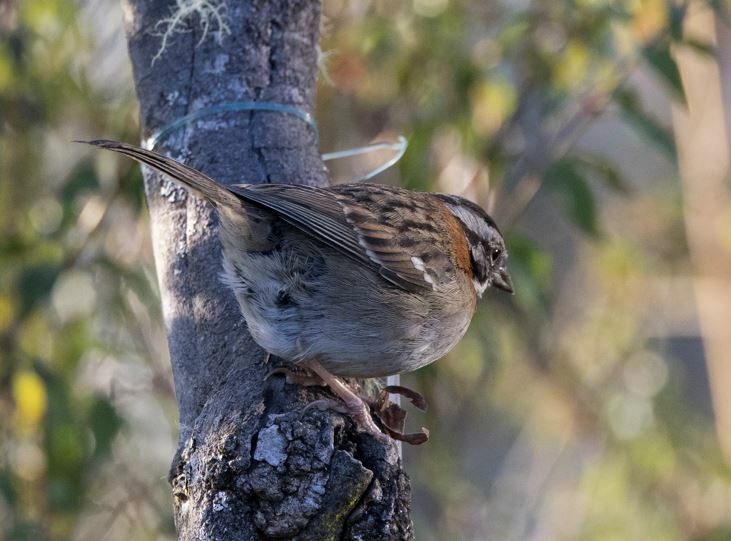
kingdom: Animalia
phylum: Chordata
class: Aves
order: Passeriformes
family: Passerellidae
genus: Zonotrichia
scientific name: Zonotrichia capensis
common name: Rufous-collared sparrow
